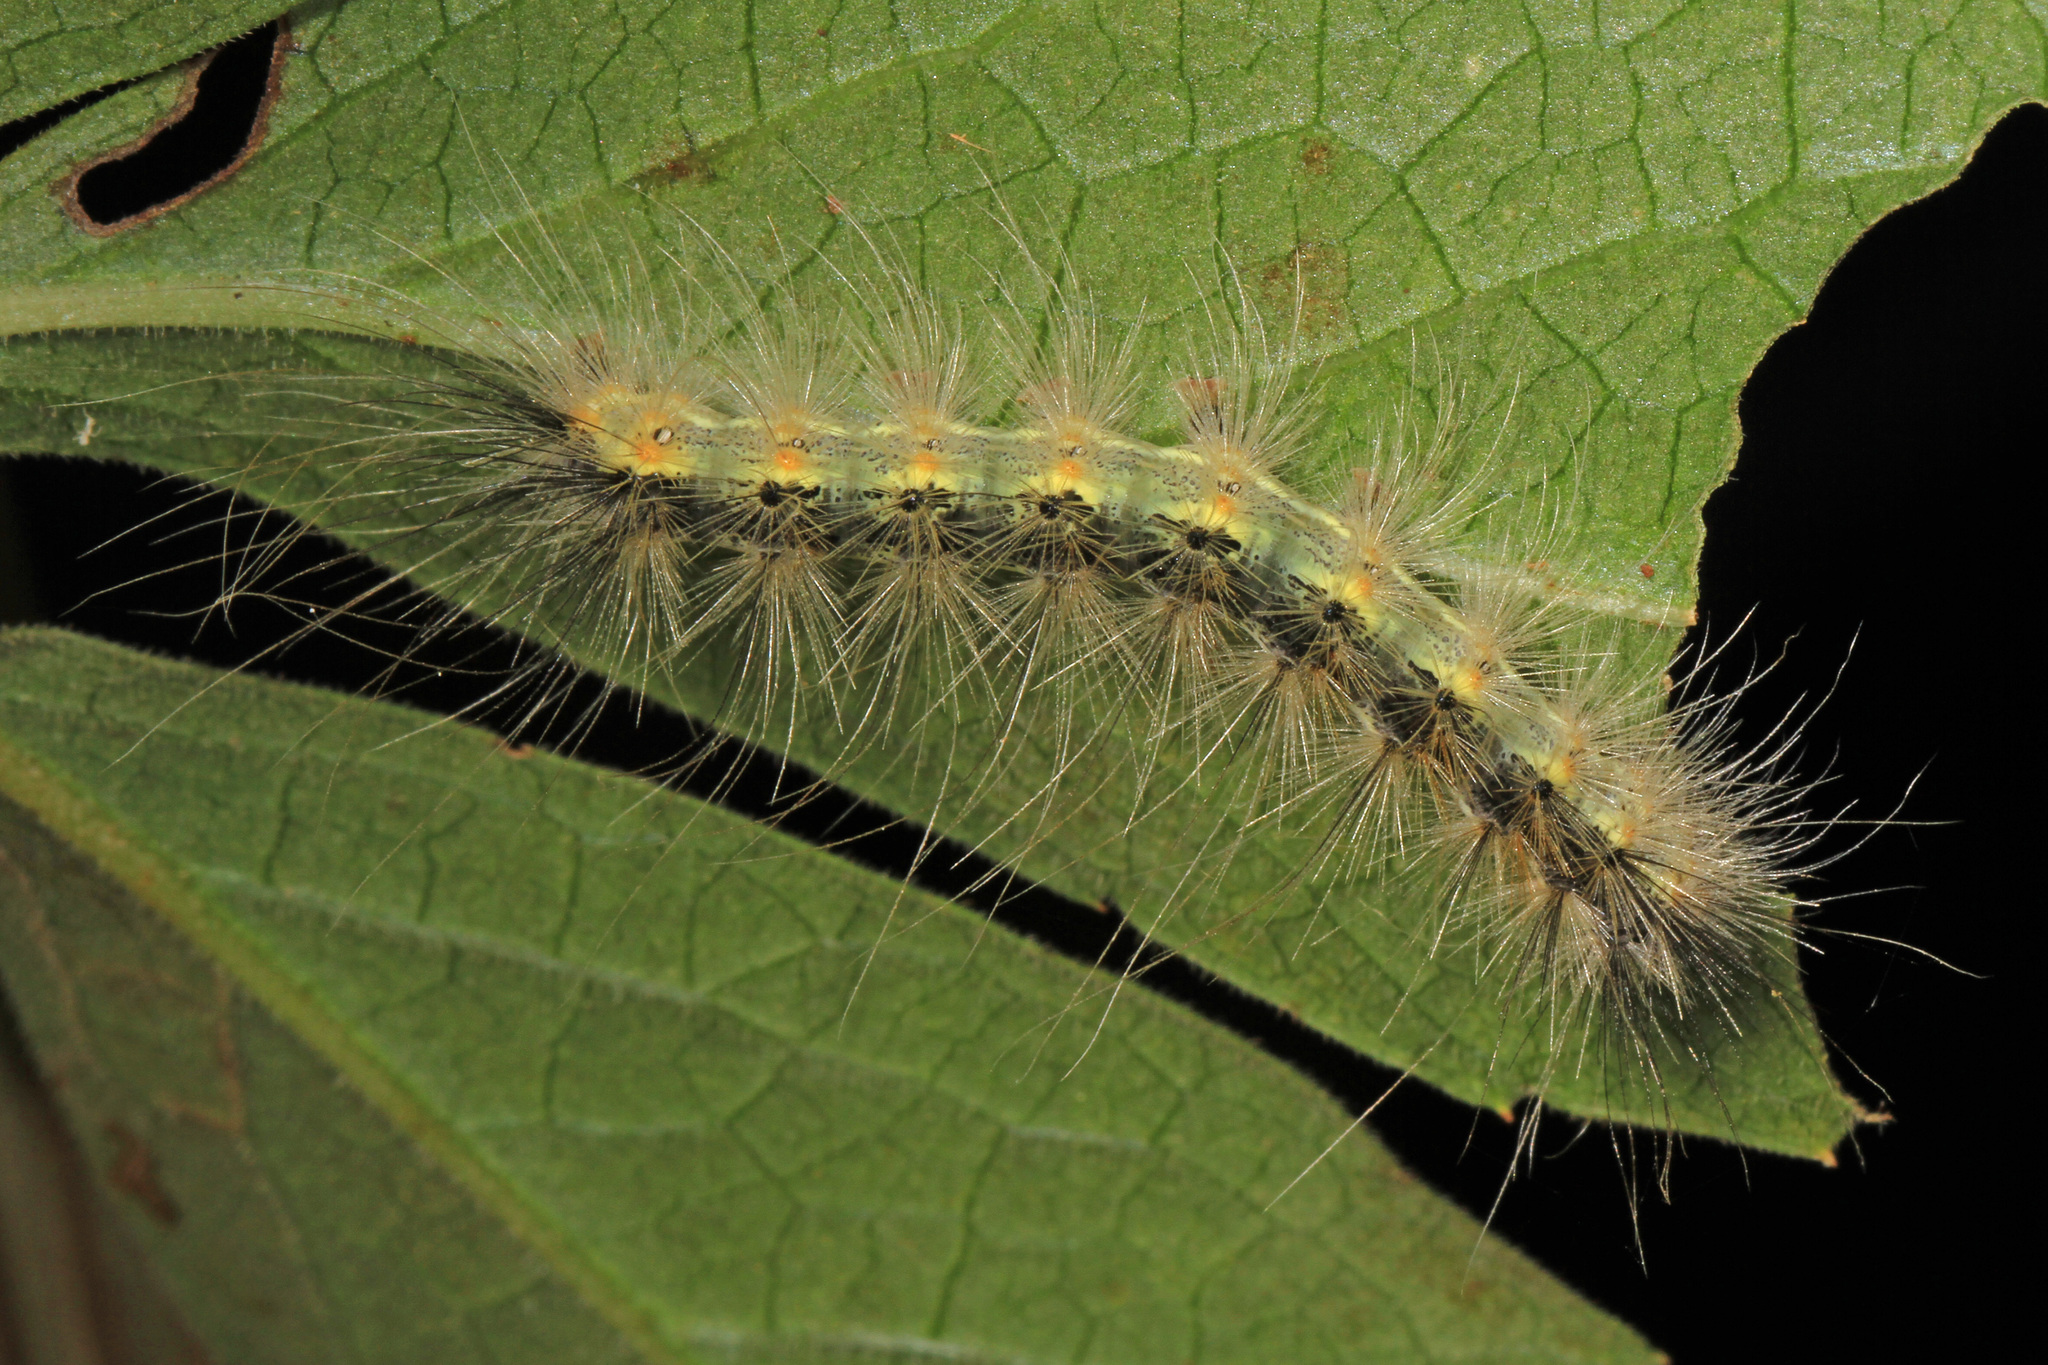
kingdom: Animalia
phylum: Arthropoda
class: Insecta
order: Lepidoptera
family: Erebidae
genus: Hyphantria
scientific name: Hyphantria cunea
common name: American white moth
